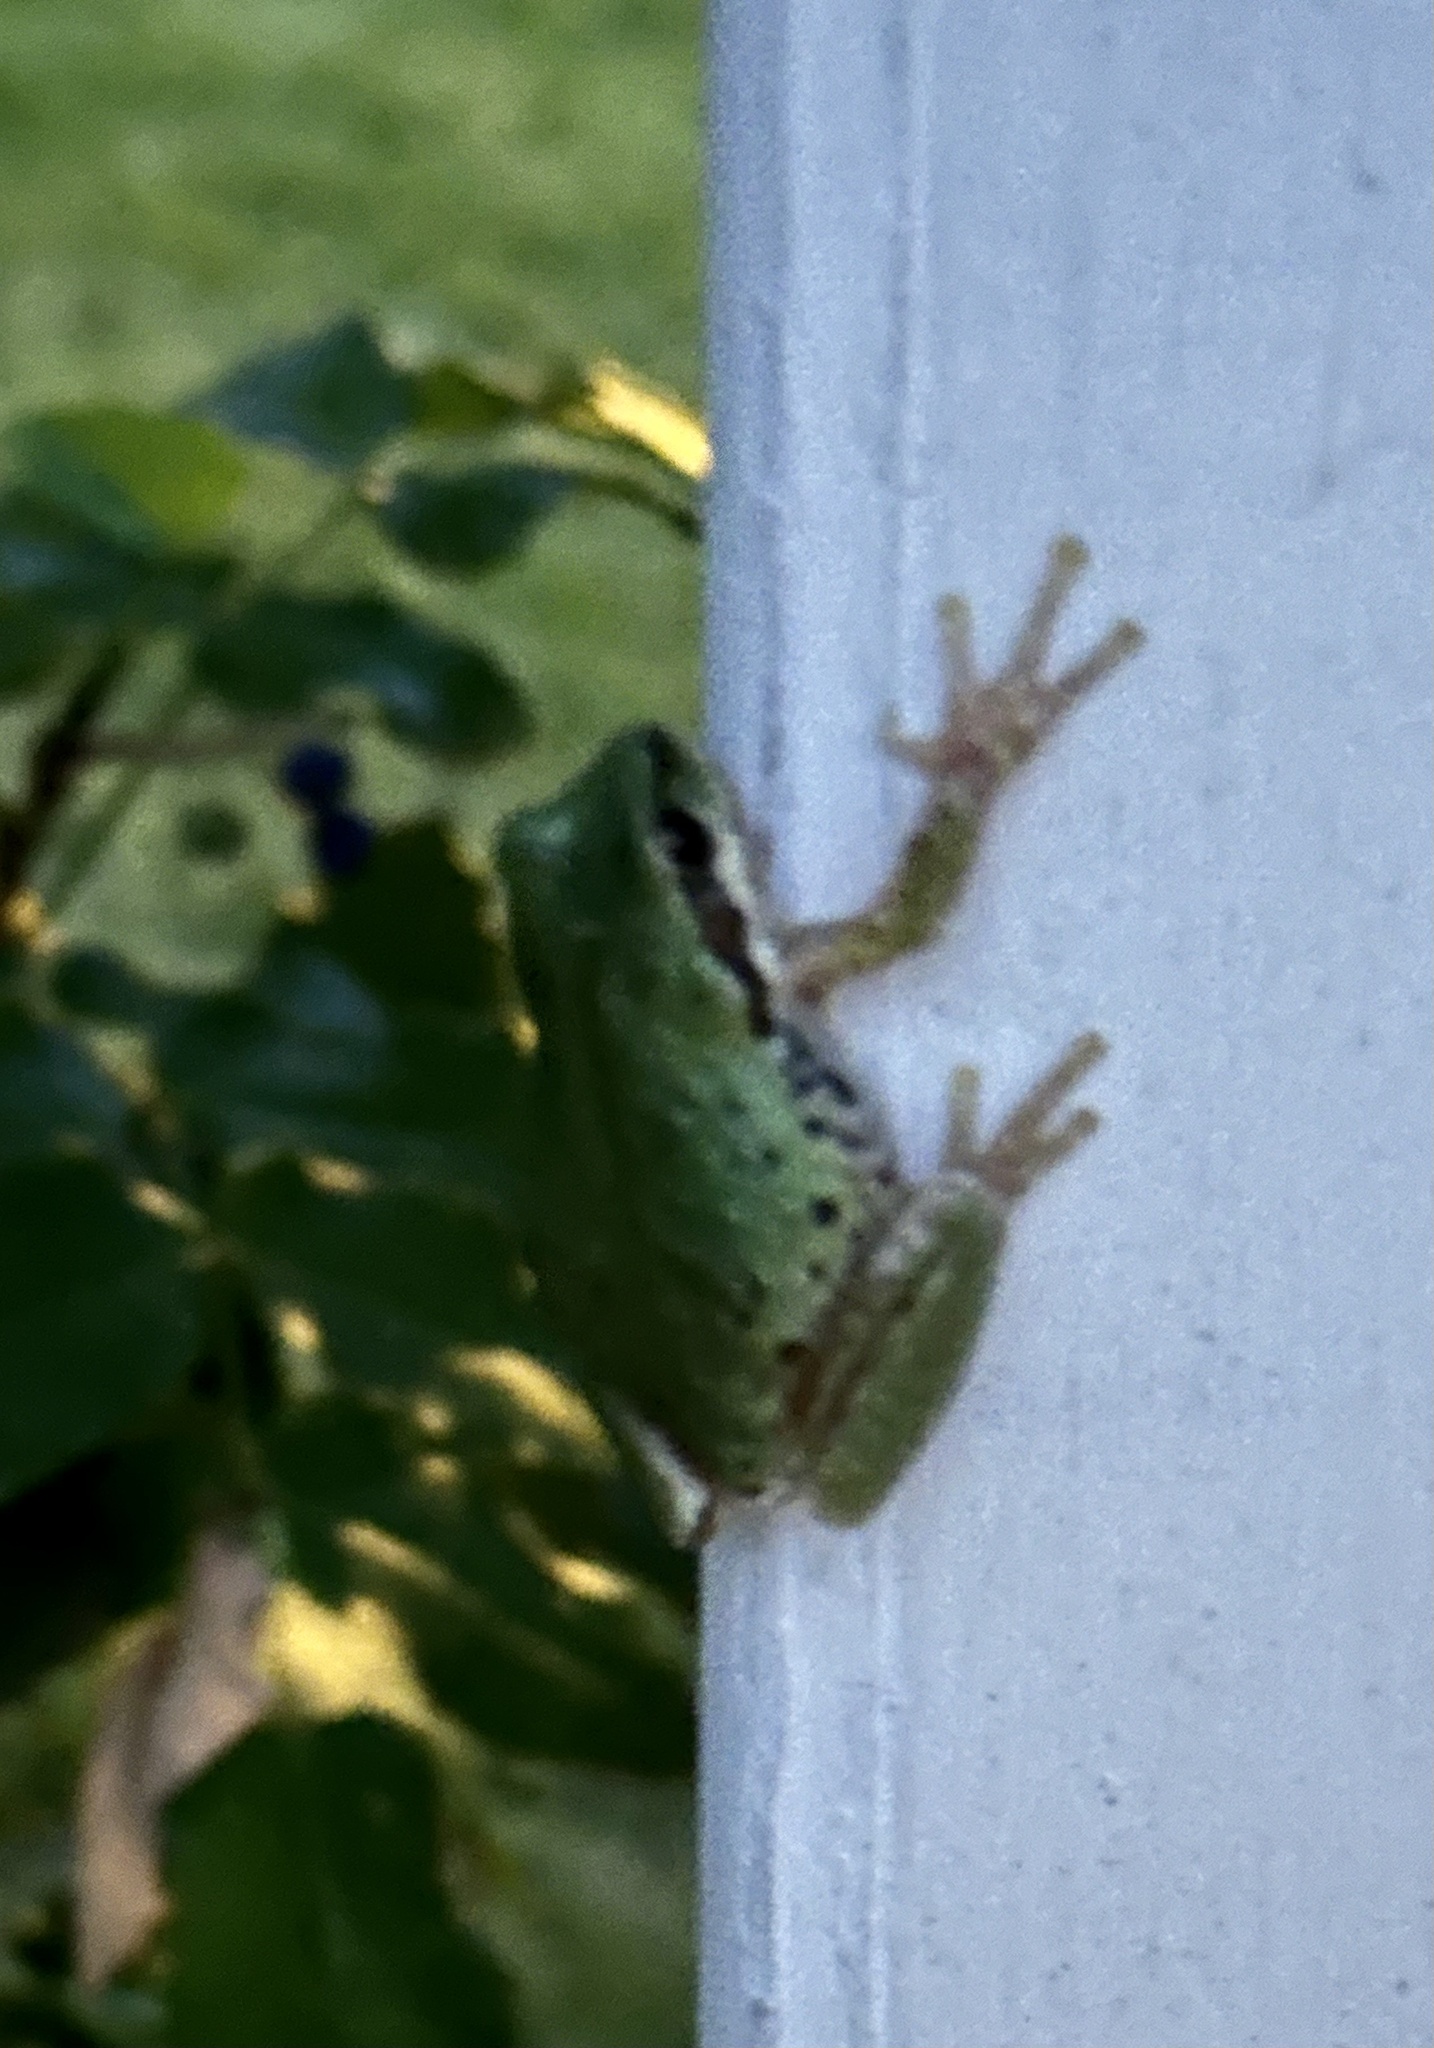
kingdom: Animalia
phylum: Chordata
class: Amphibia
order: Anura
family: Hylidae
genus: Pseudacris
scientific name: Pseudacris regilla
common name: Pacific chorus frog
